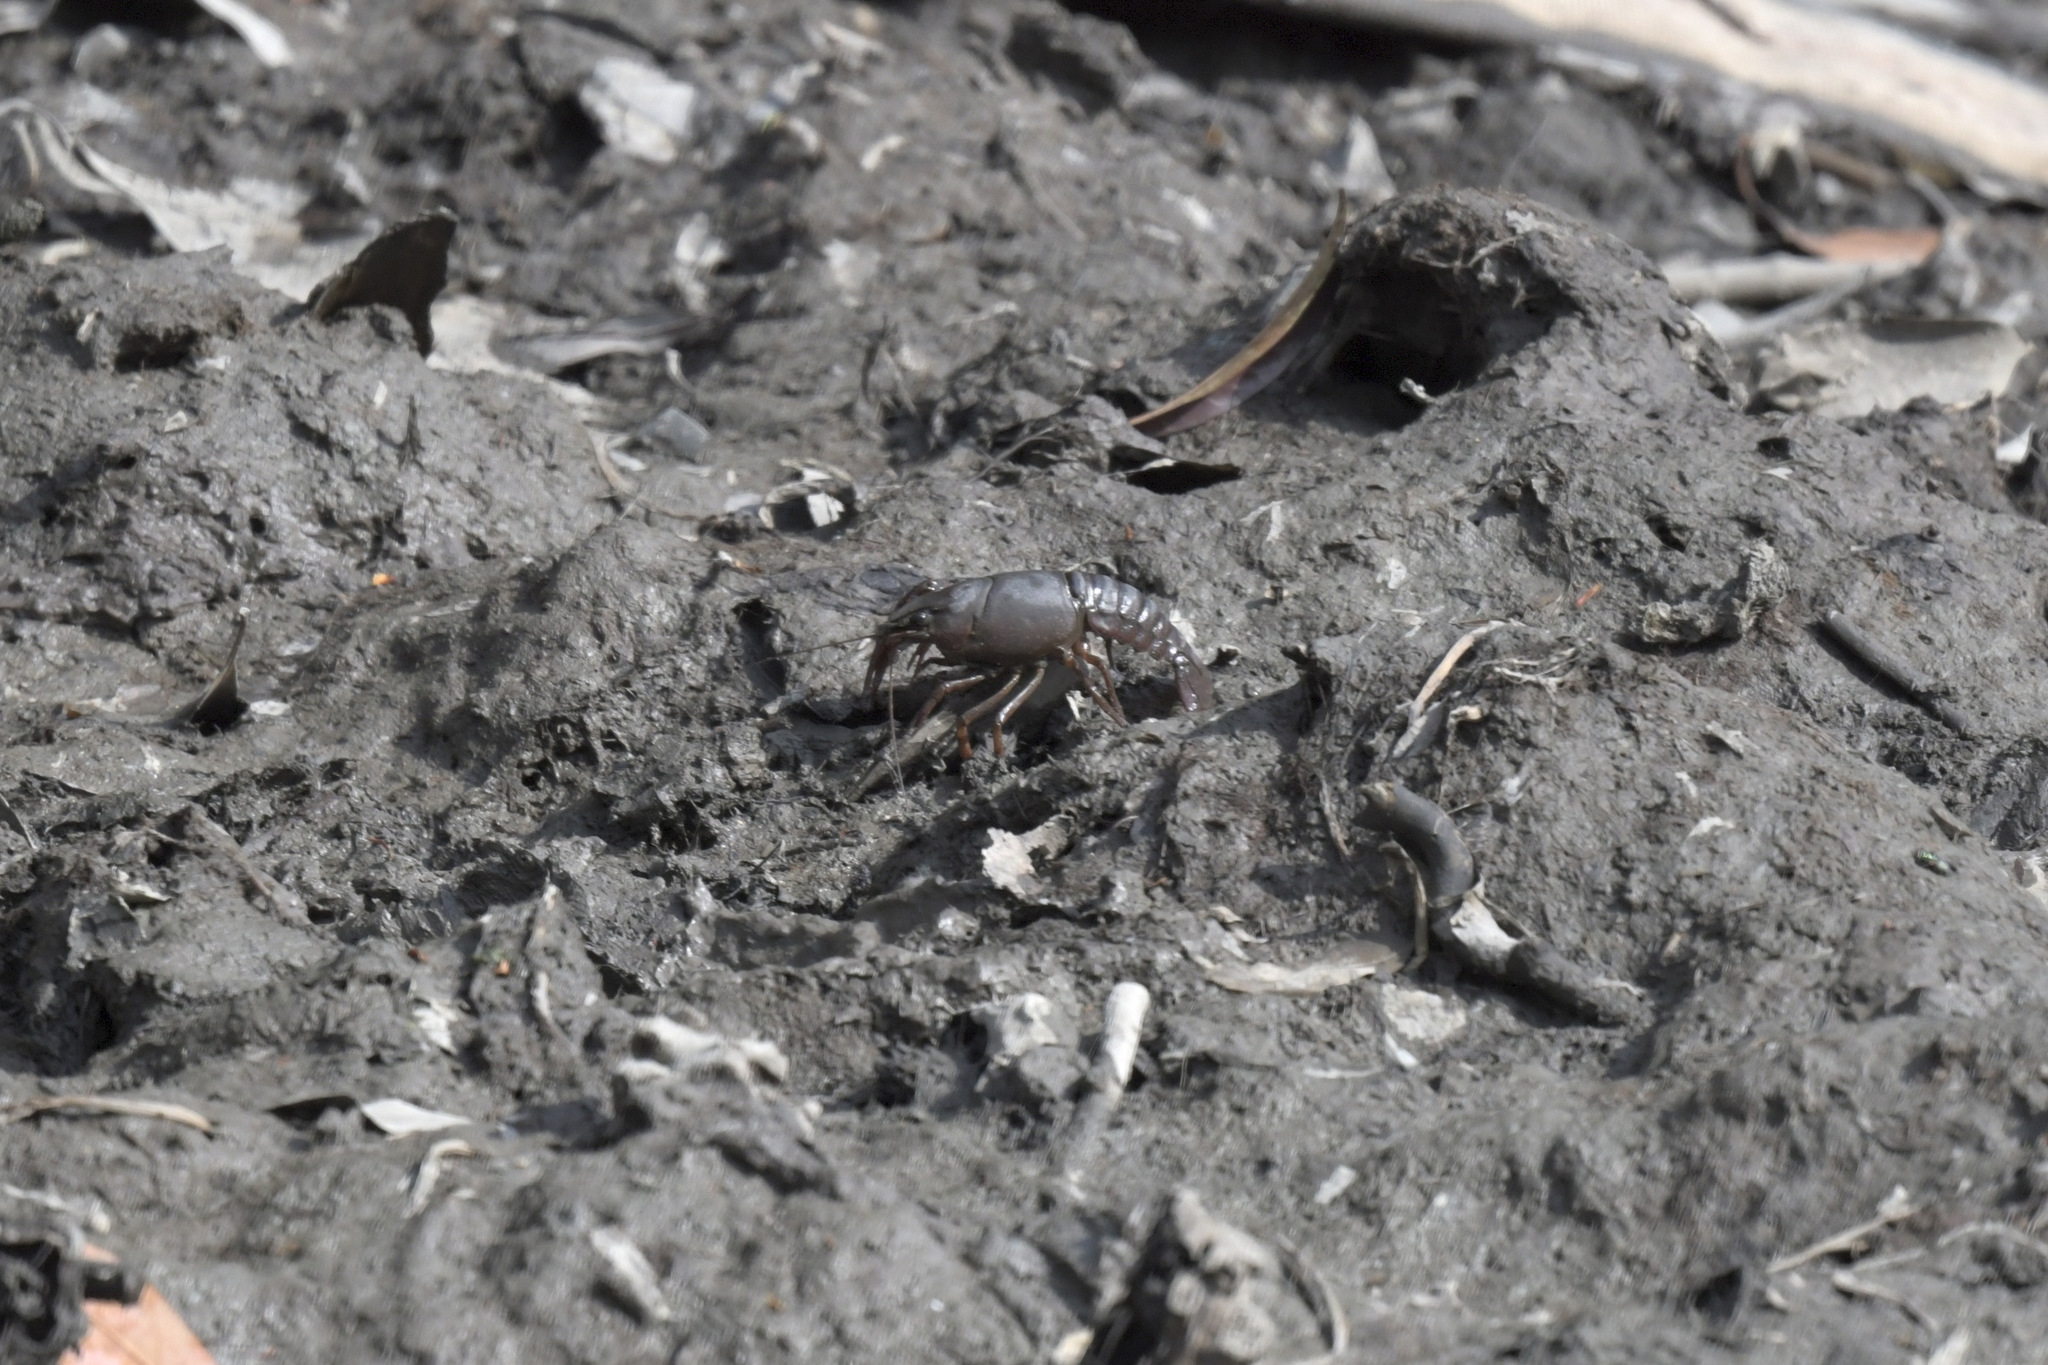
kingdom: Animalia
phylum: Arthropoda
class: Malacostraca
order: Decapoda
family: Cambaridae
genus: Procambarus
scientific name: Procambarus clarkii
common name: Red swamp crayfish
